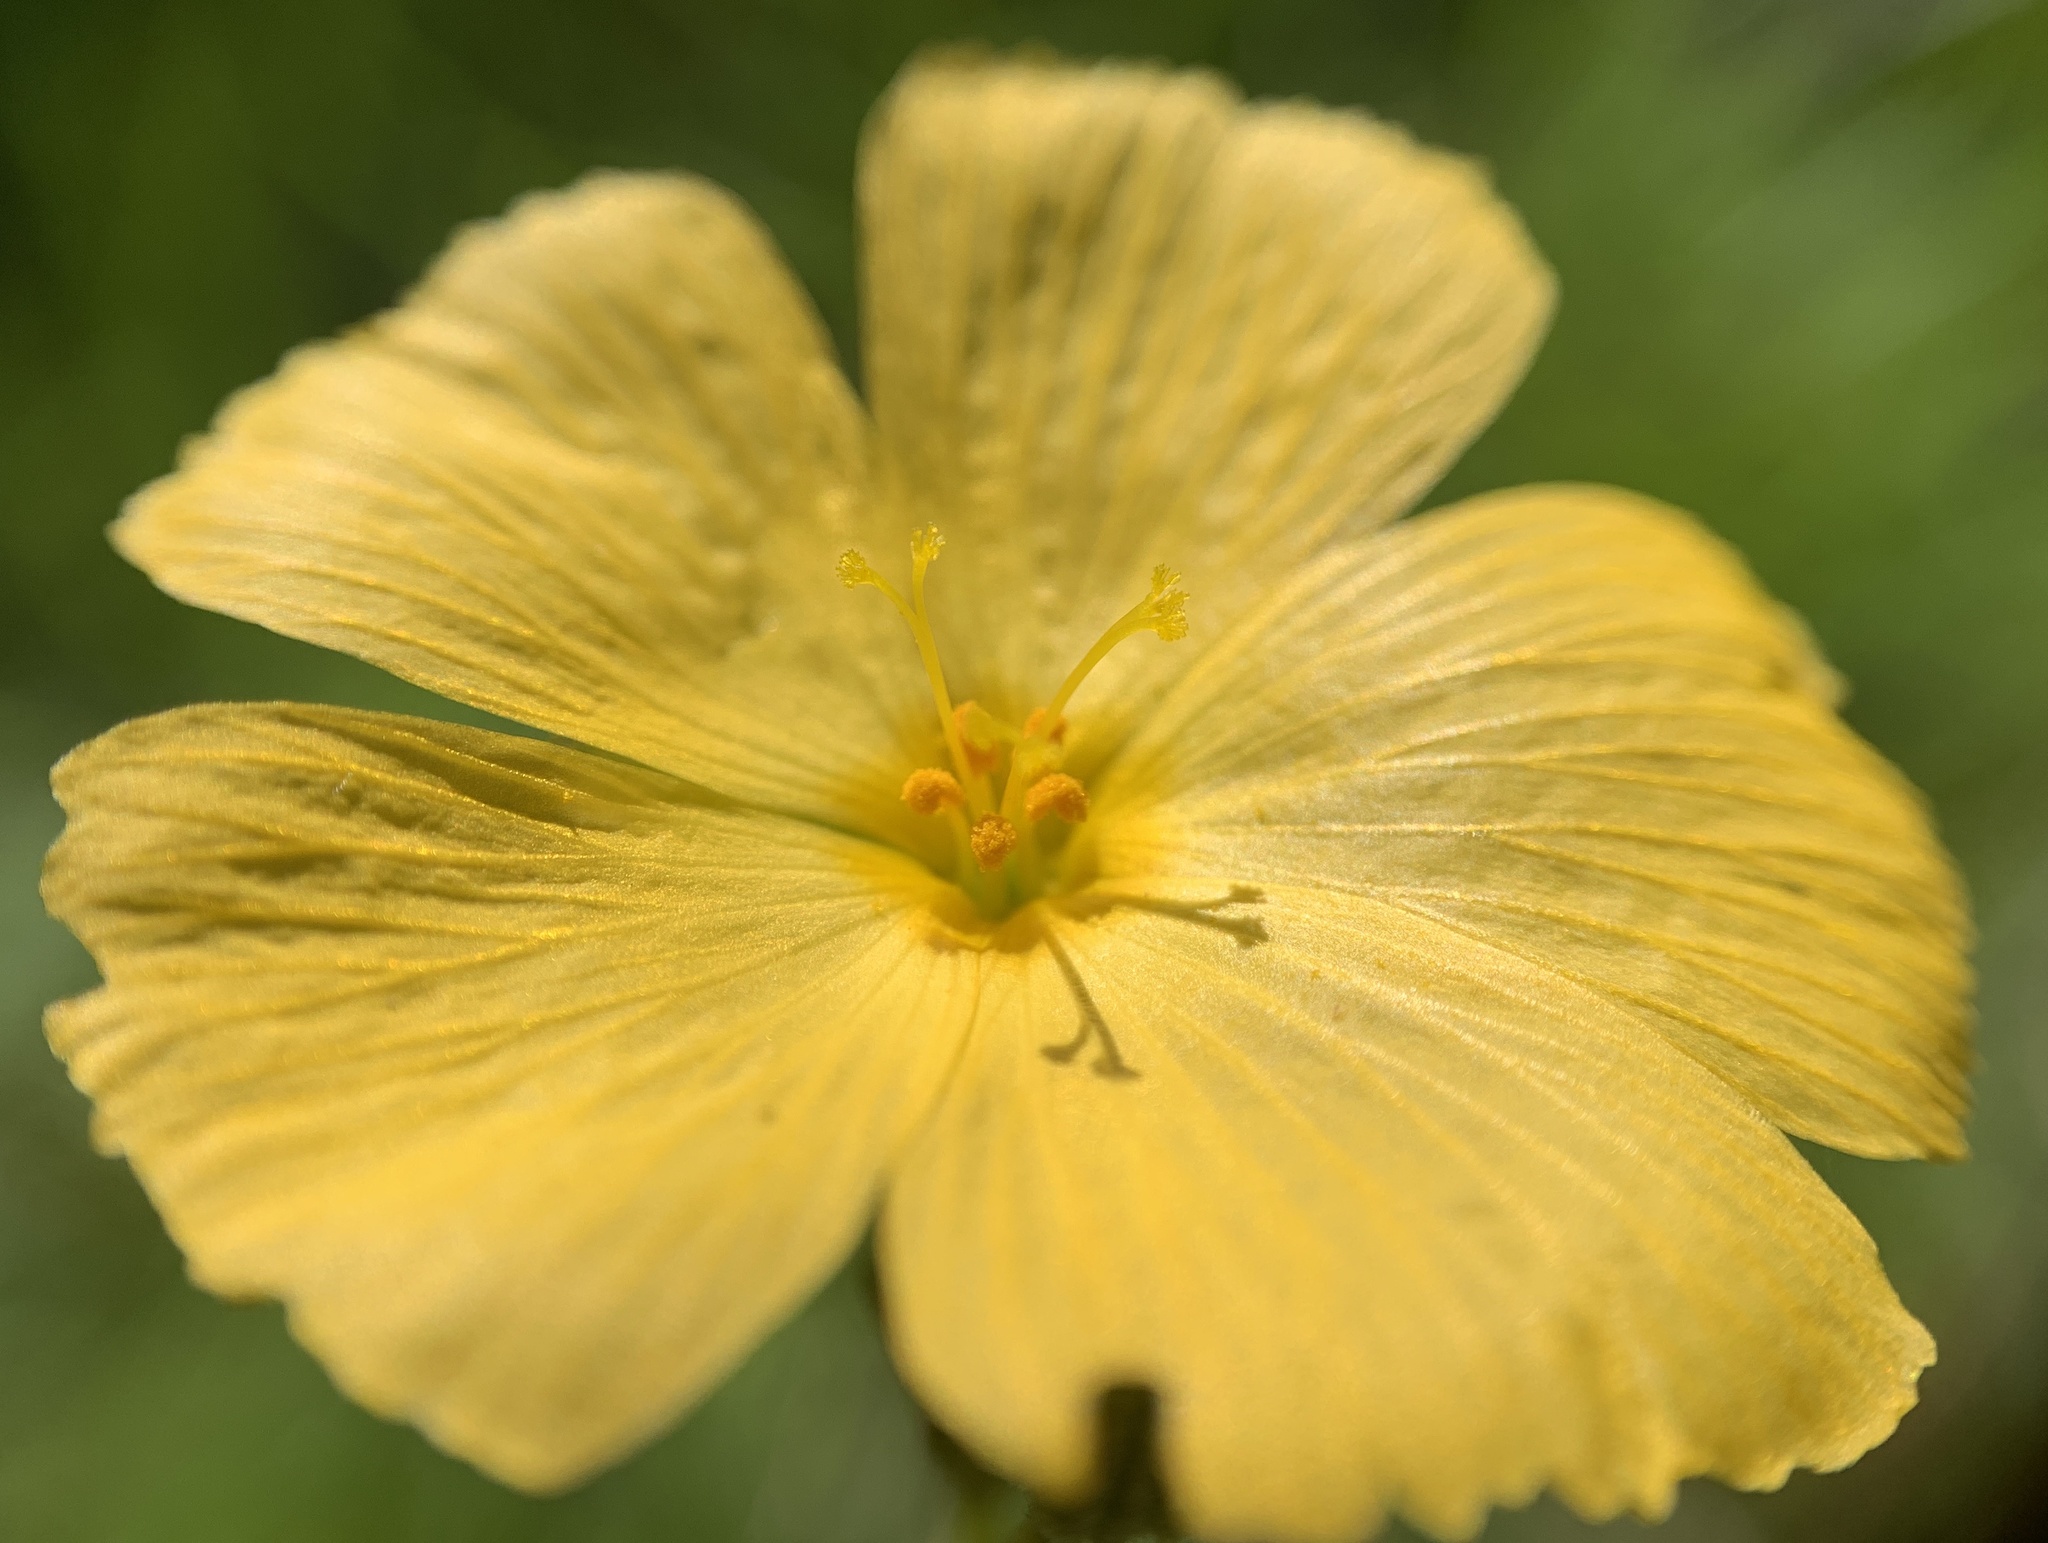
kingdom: Plantae
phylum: Tracheophyta
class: Magnoliopsida
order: Malpighiales
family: Turneraceae
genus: Piriqueta
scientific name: Piriqueta cistoides
